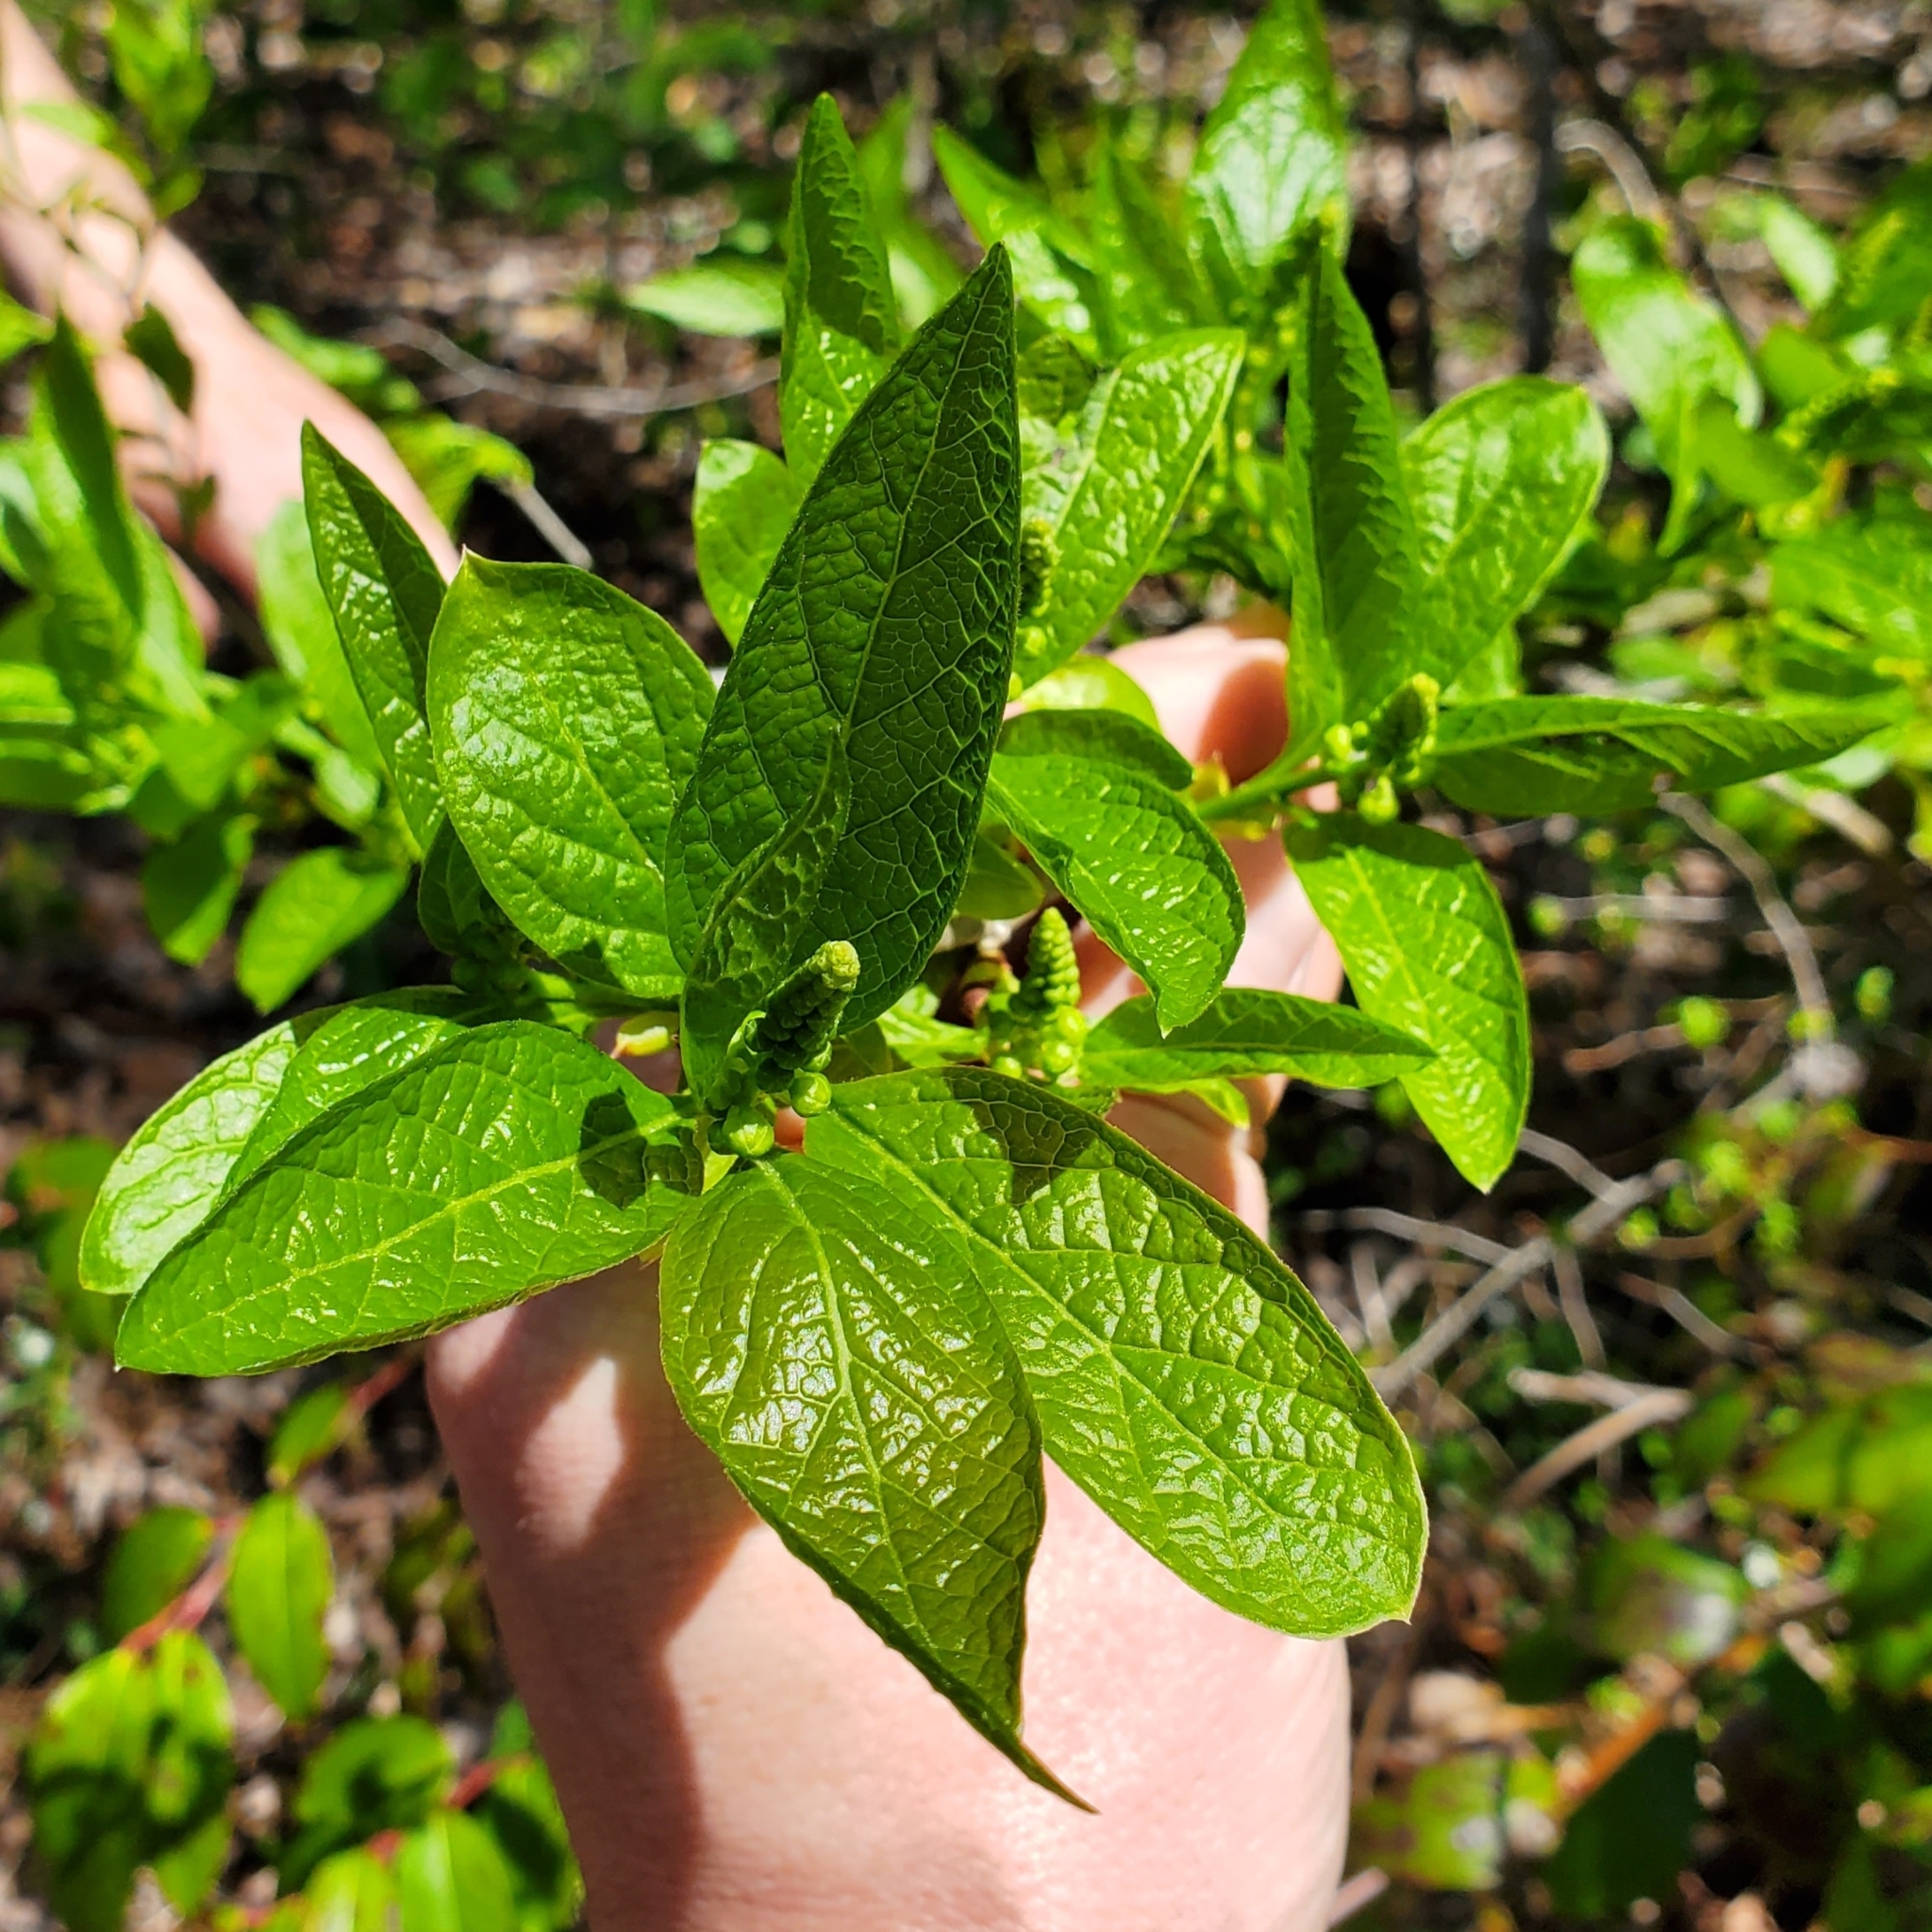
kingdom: Plantae
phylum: Tracheophyta
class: Magnoliopsida
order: Santalales
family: Cervantesiaceae
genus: Pyrularia
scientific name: Pyrularia pubera
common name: Oilnut
